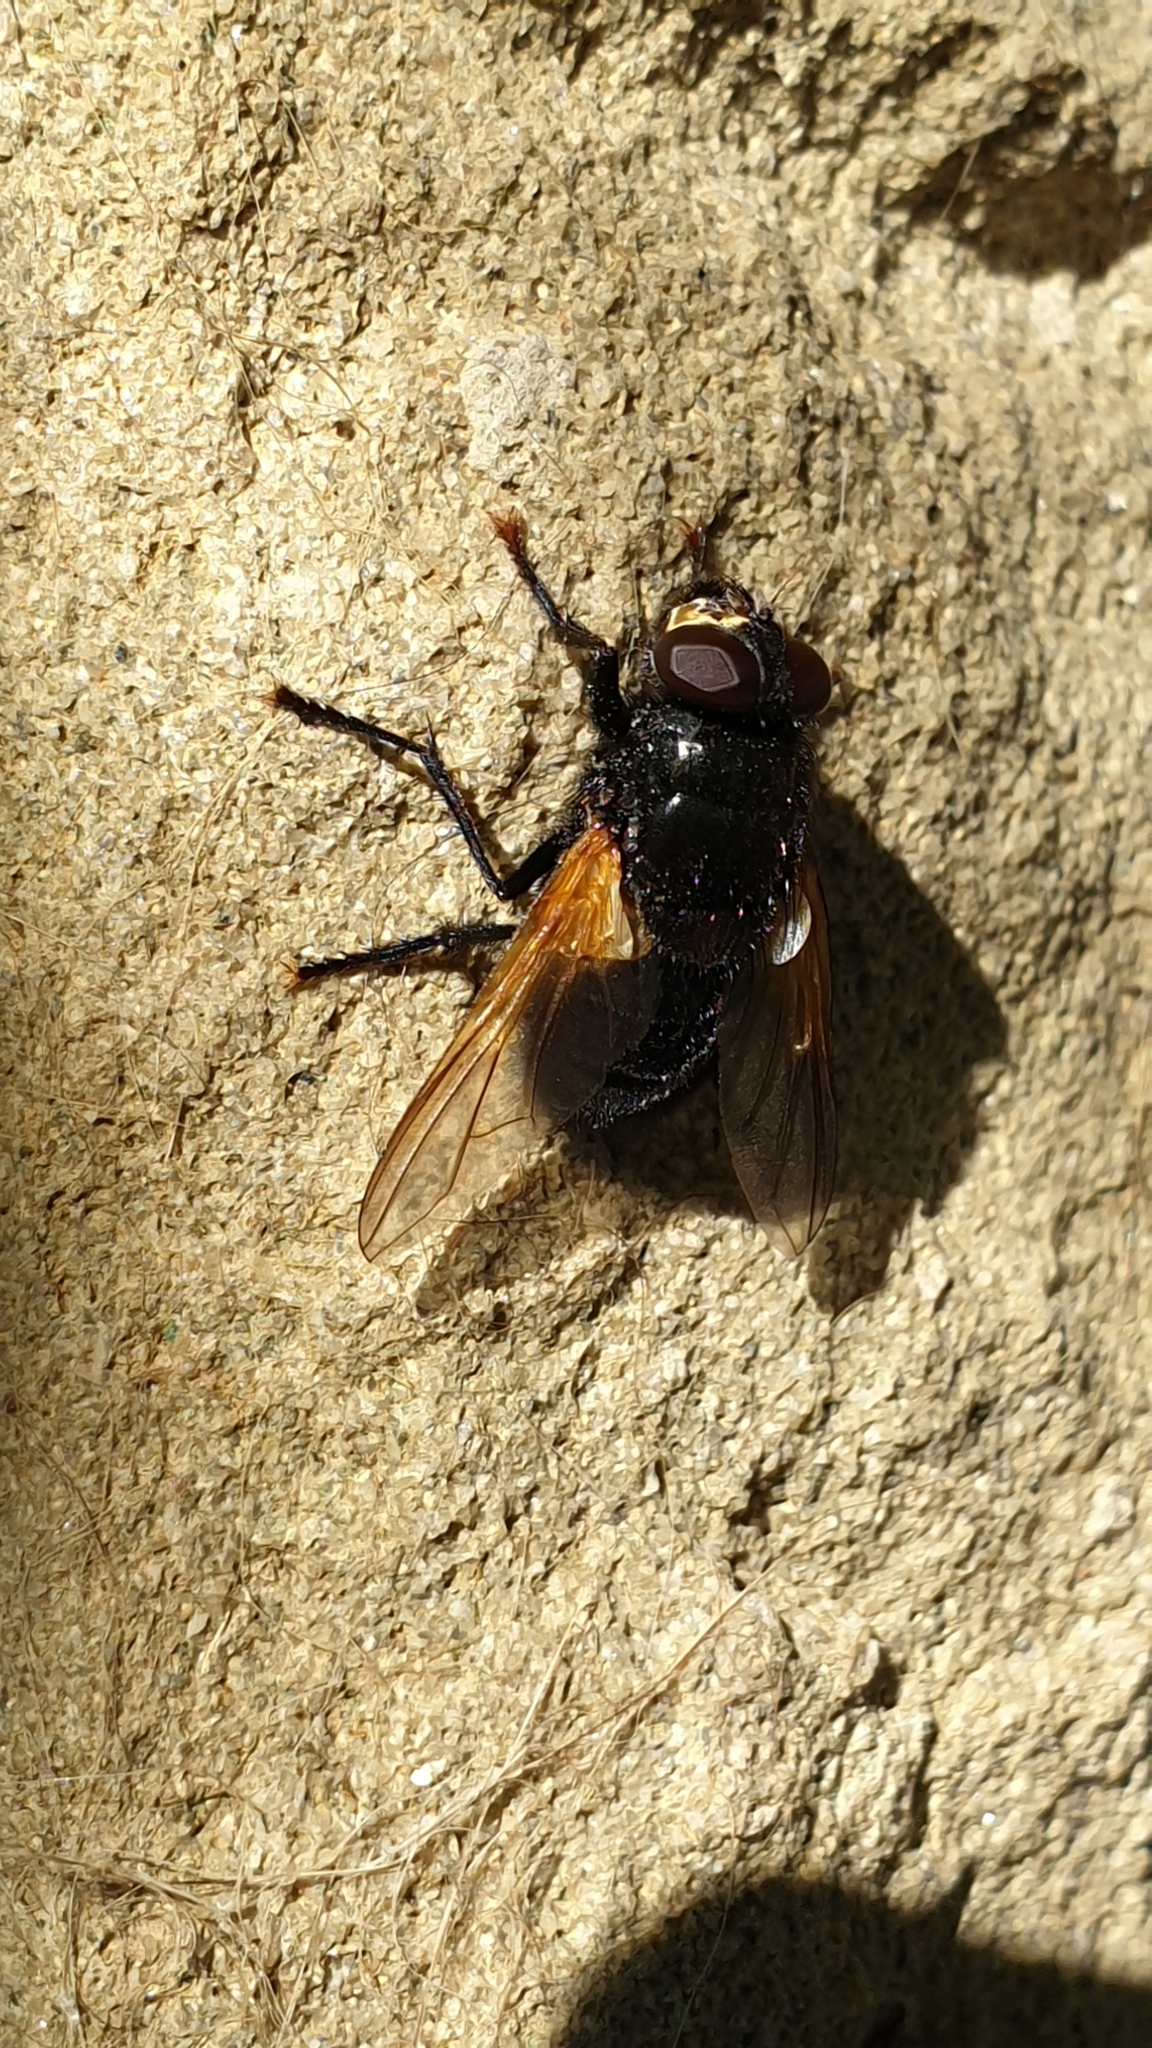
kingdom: Animalia
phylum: Arthropoda
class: Insecta
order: Diptera
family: Muscidae
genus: Mesembrina
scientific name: Mesembrina meridiana
